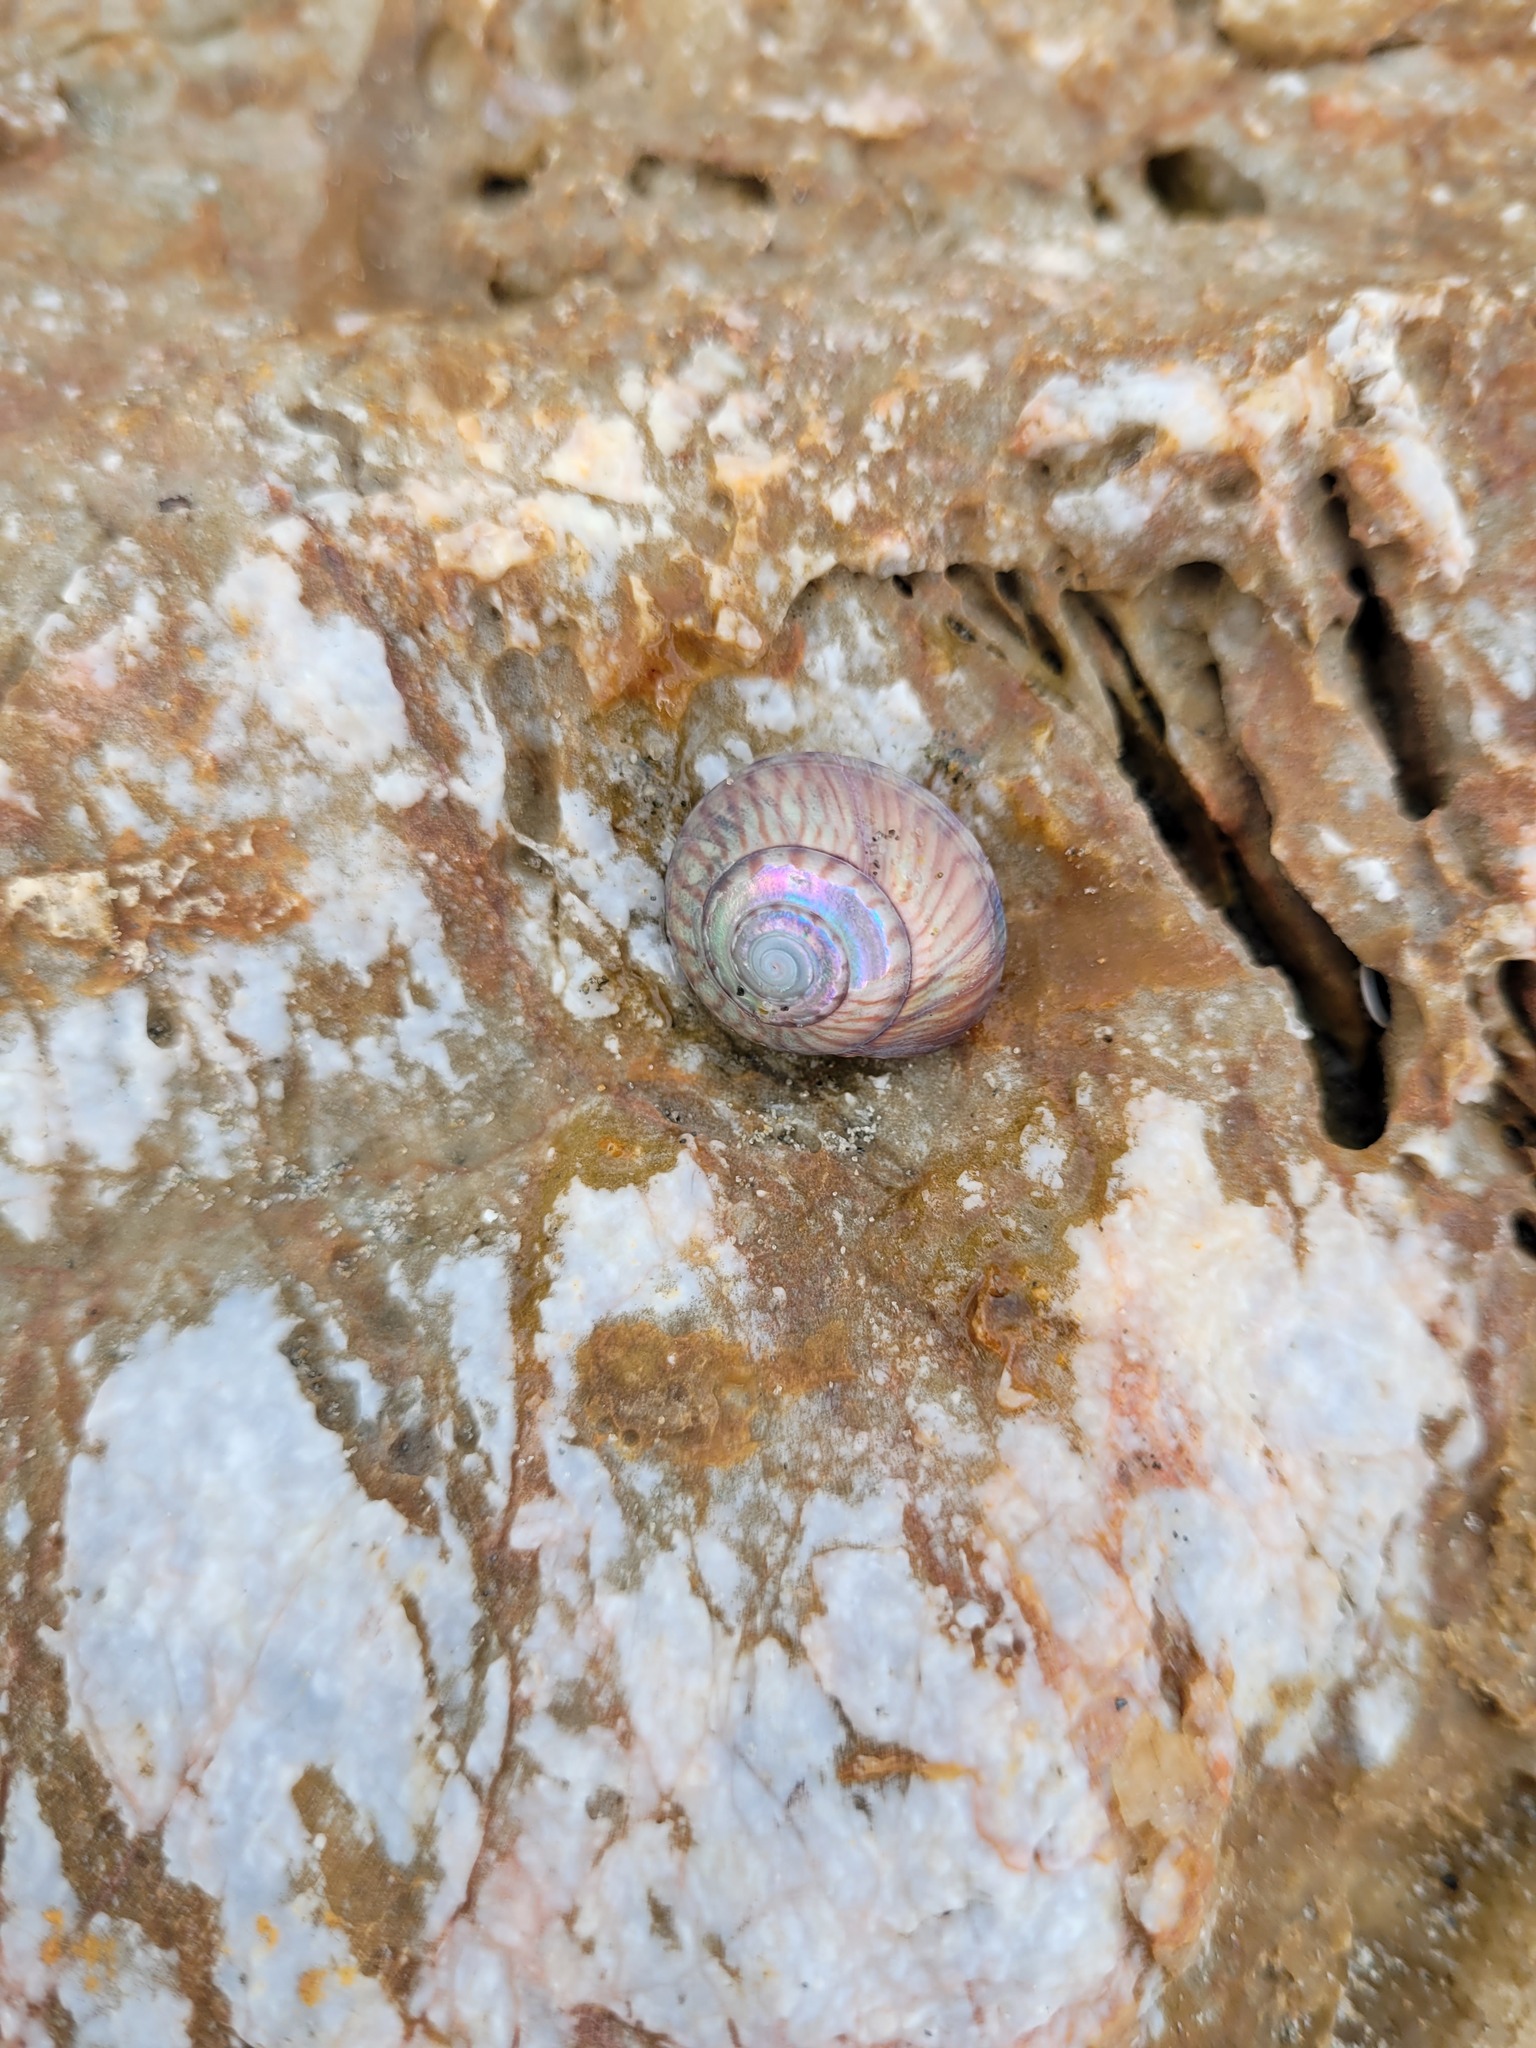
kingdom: Animalia
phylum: Mollusca
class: Gastropoda
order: Trochida
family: Trochidae
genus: Zethalia
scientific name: Zethalia zelandica
